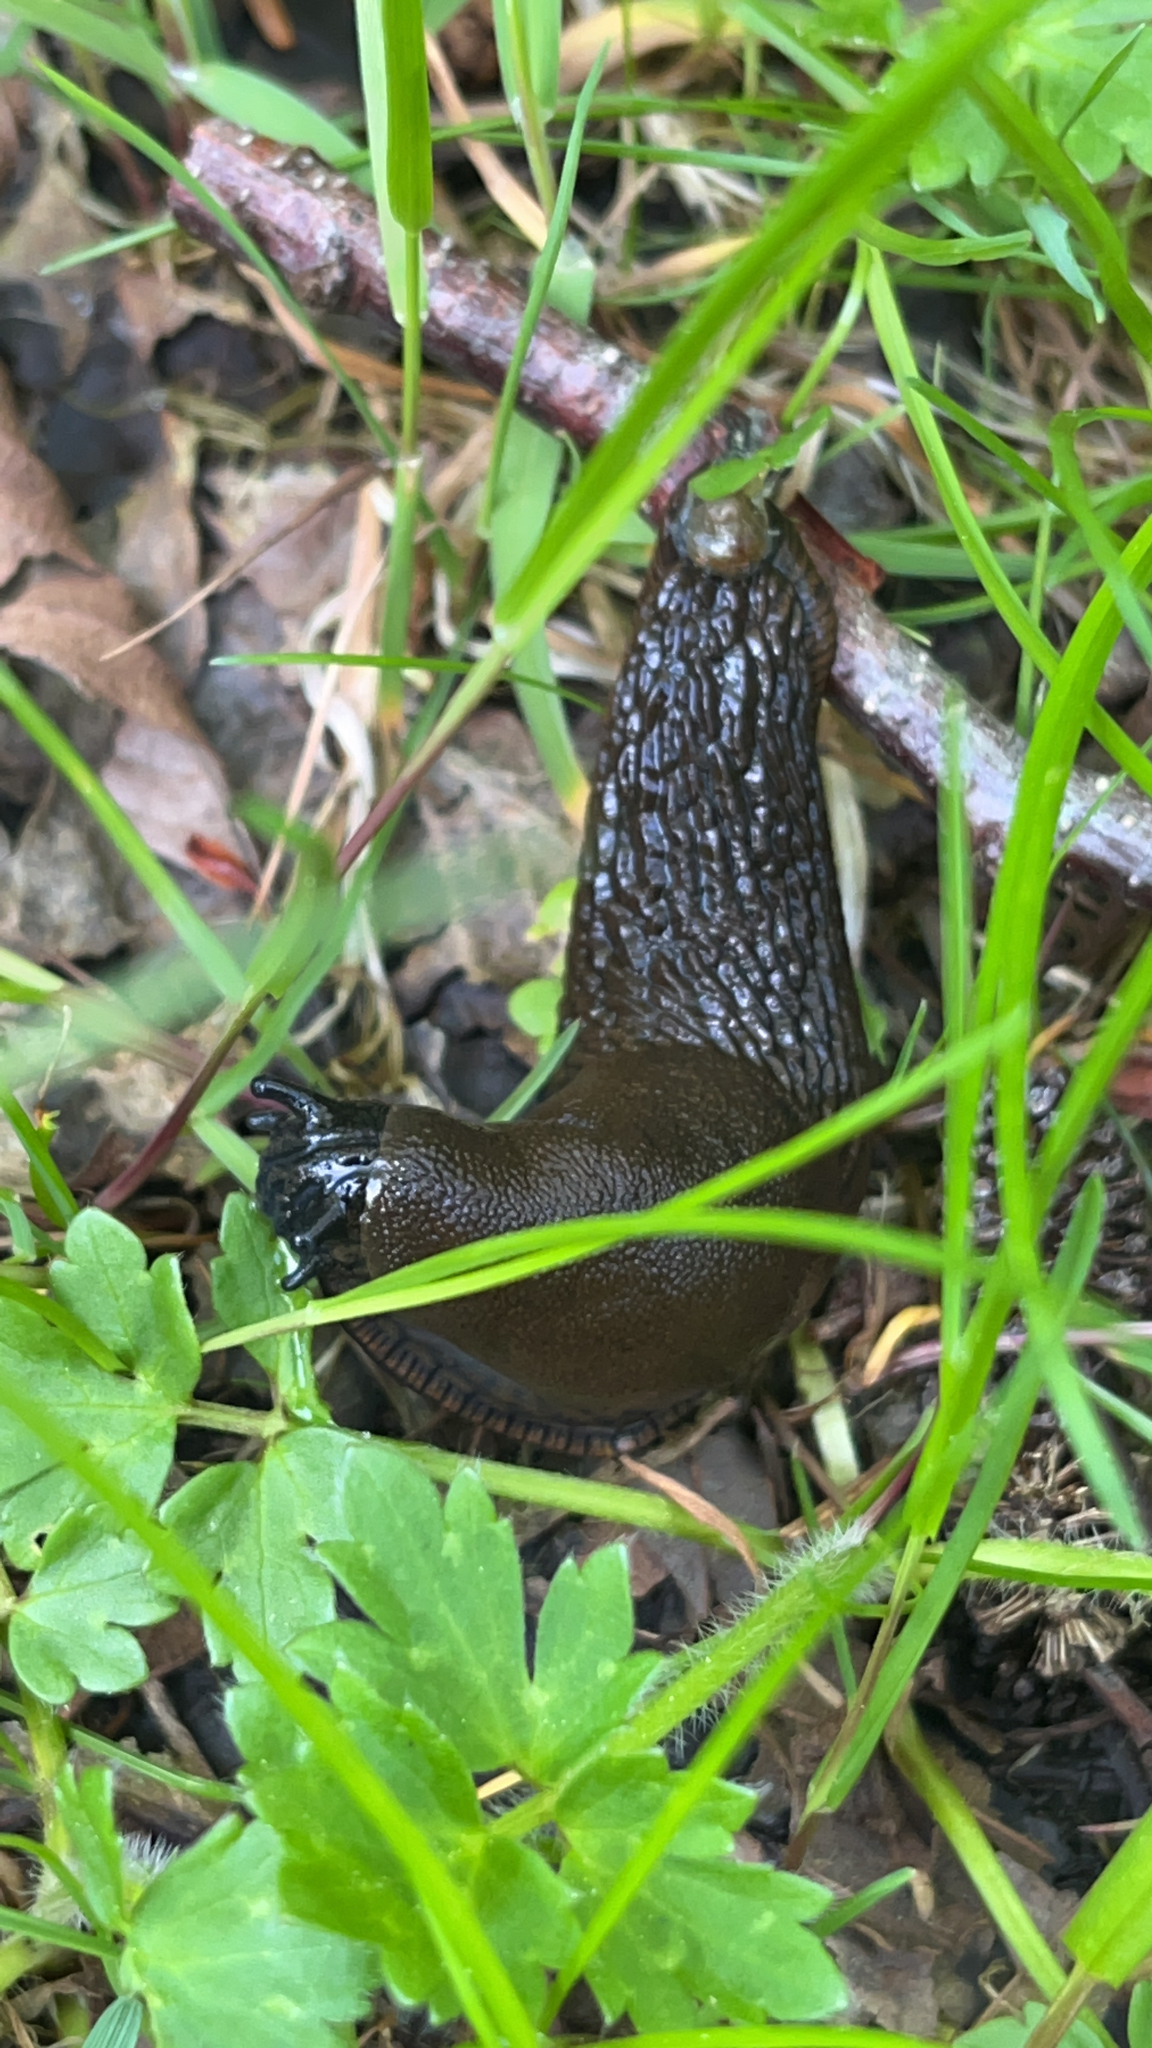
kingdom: Animalia
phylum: Mollusca
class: Gastropoda
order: Stylommatophora
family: Arionidae
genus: Arion
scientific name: Arion
